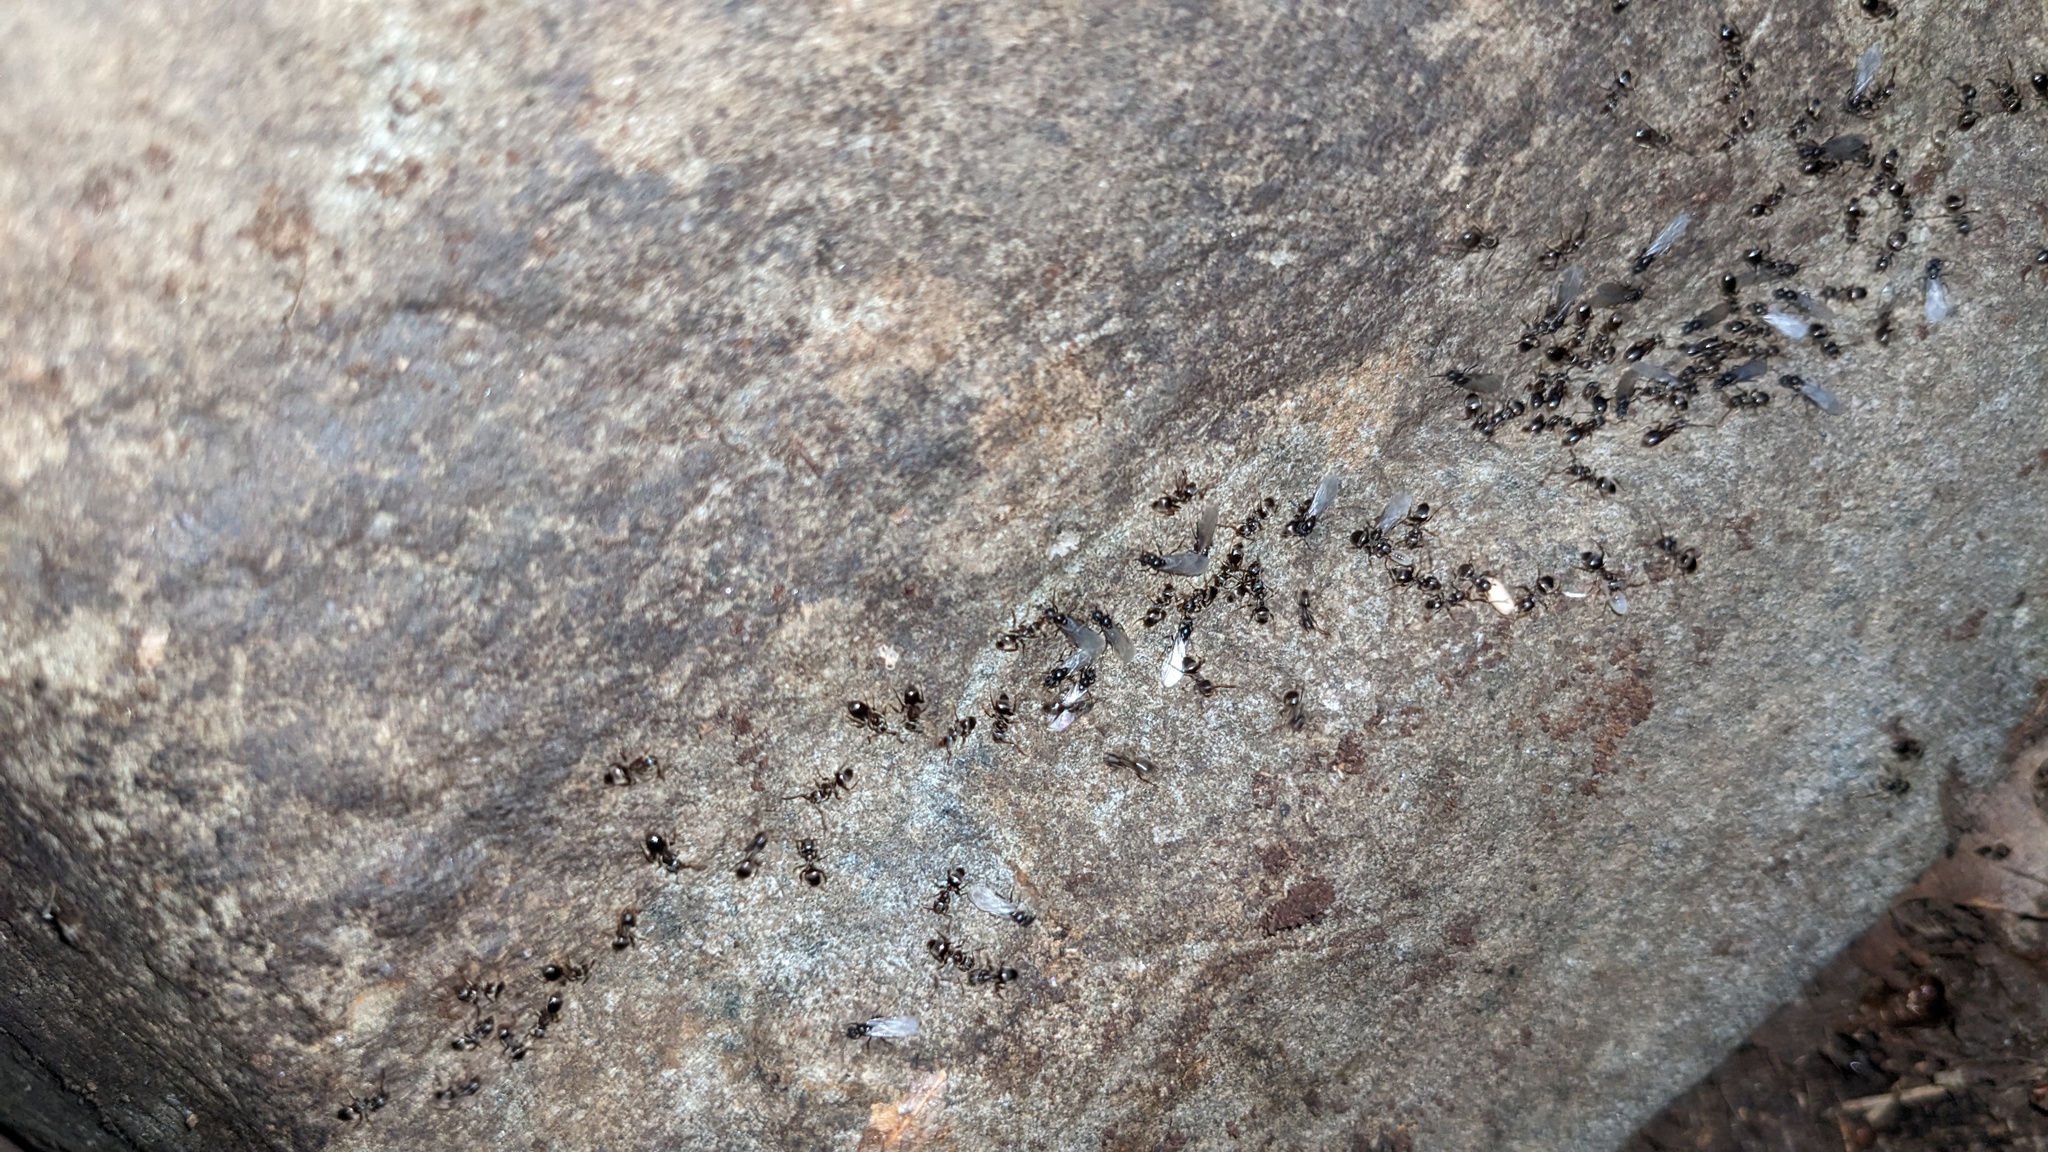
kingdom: Animalia
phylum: Arthropoda
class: Insecta
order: Hymenoptera
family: Formicidae
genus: Lasius
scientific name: Lasius americanus
